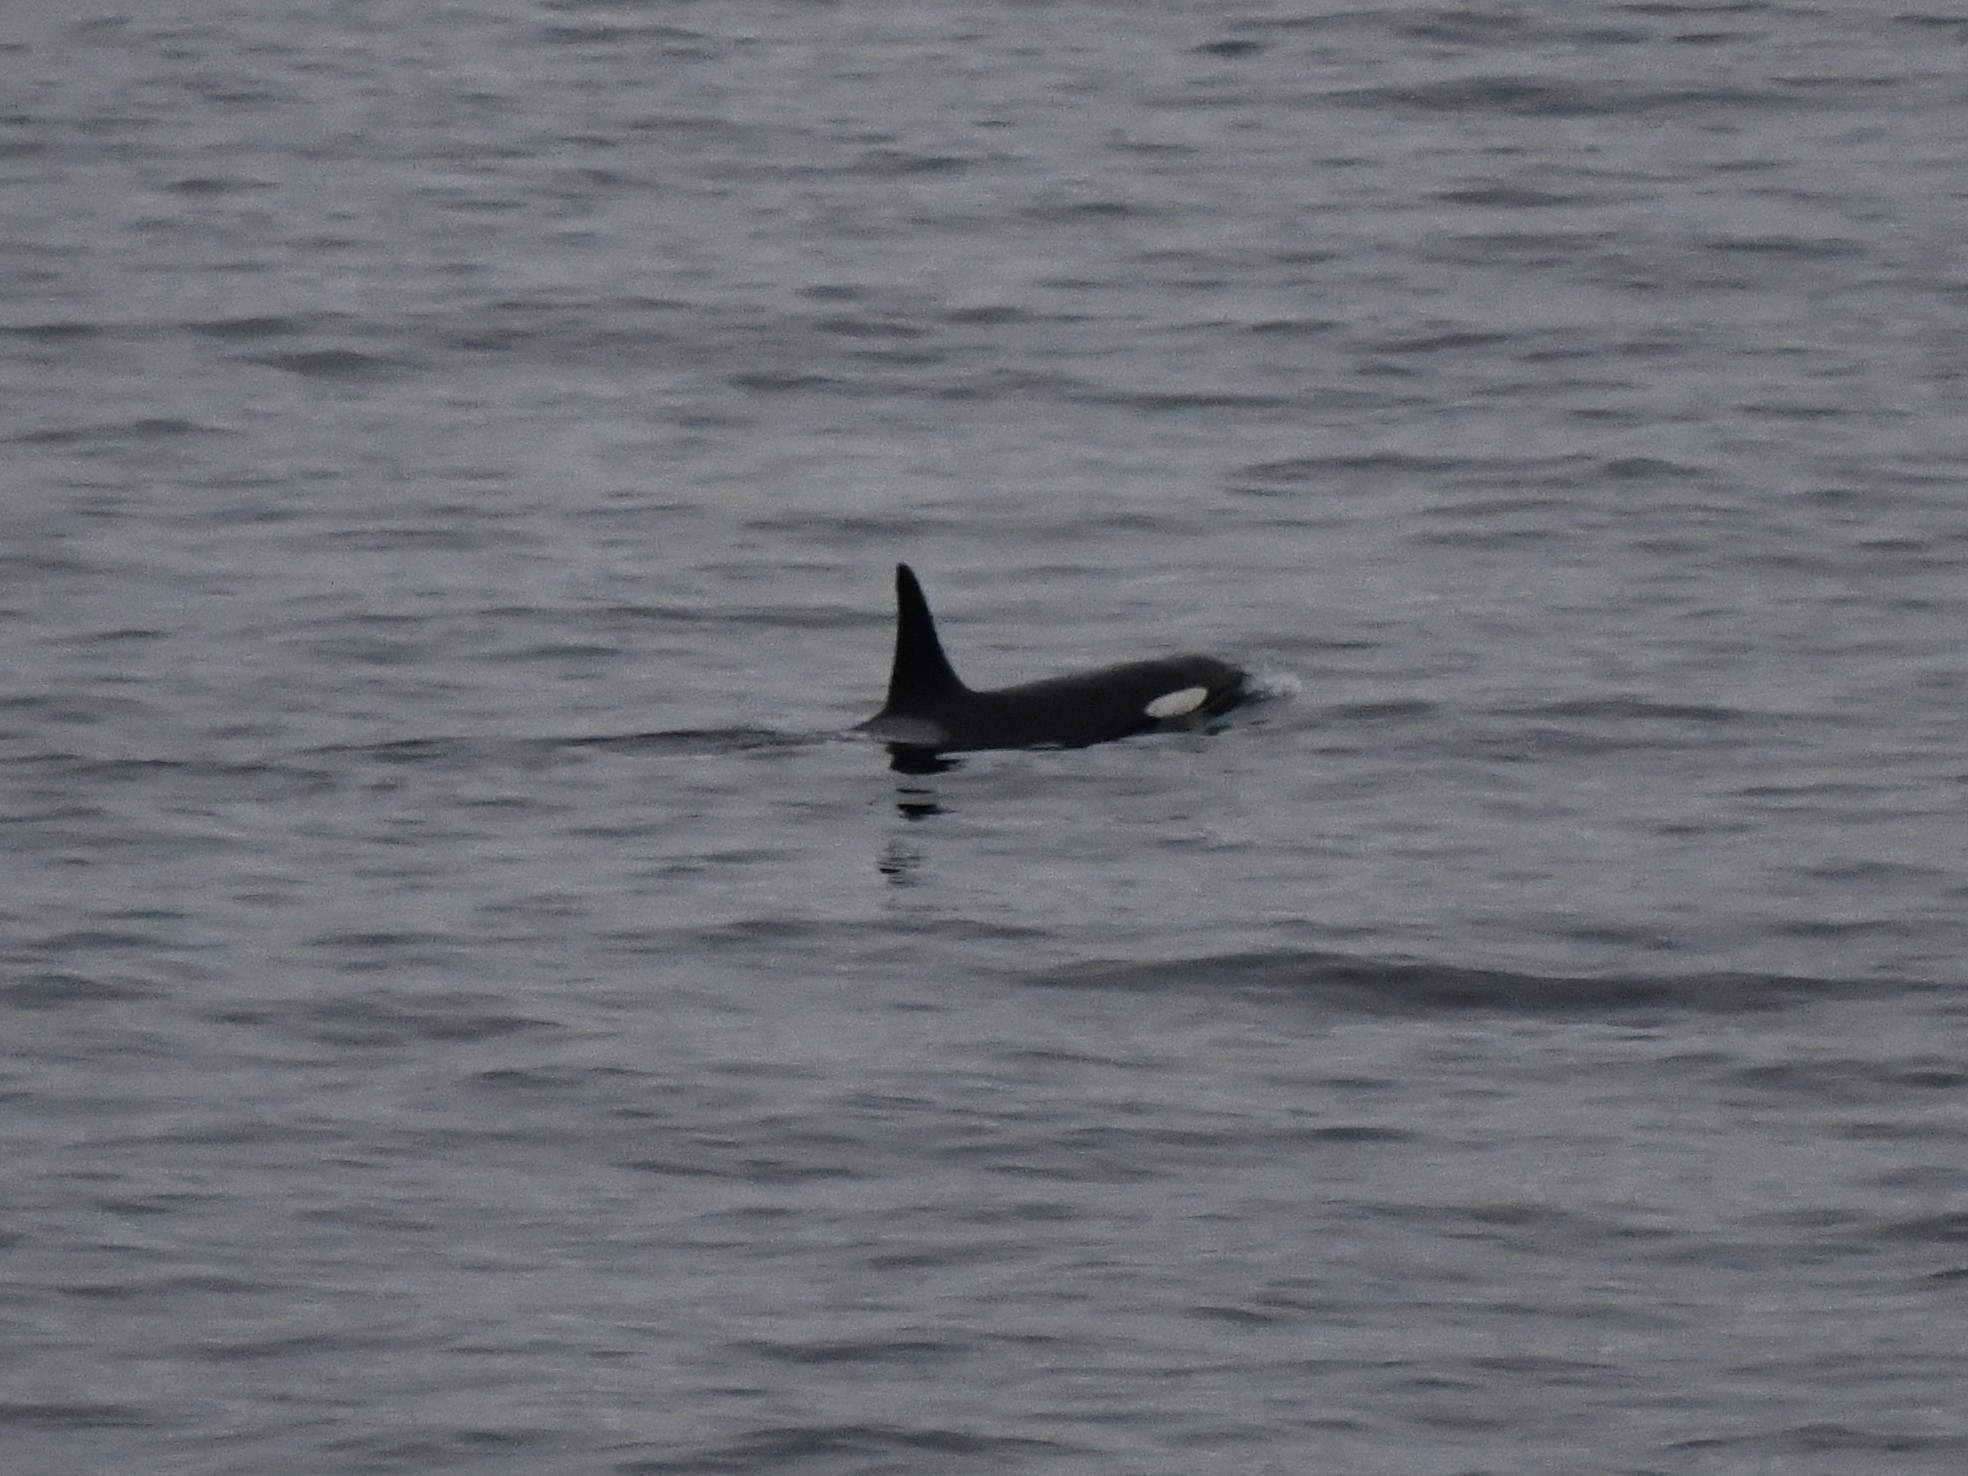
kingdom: Animalia
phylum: Chordata
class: Mammalia
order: Cetacea
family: Delphinidae
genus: Orcinus
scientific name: Orcinus orca
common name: Killer whale
